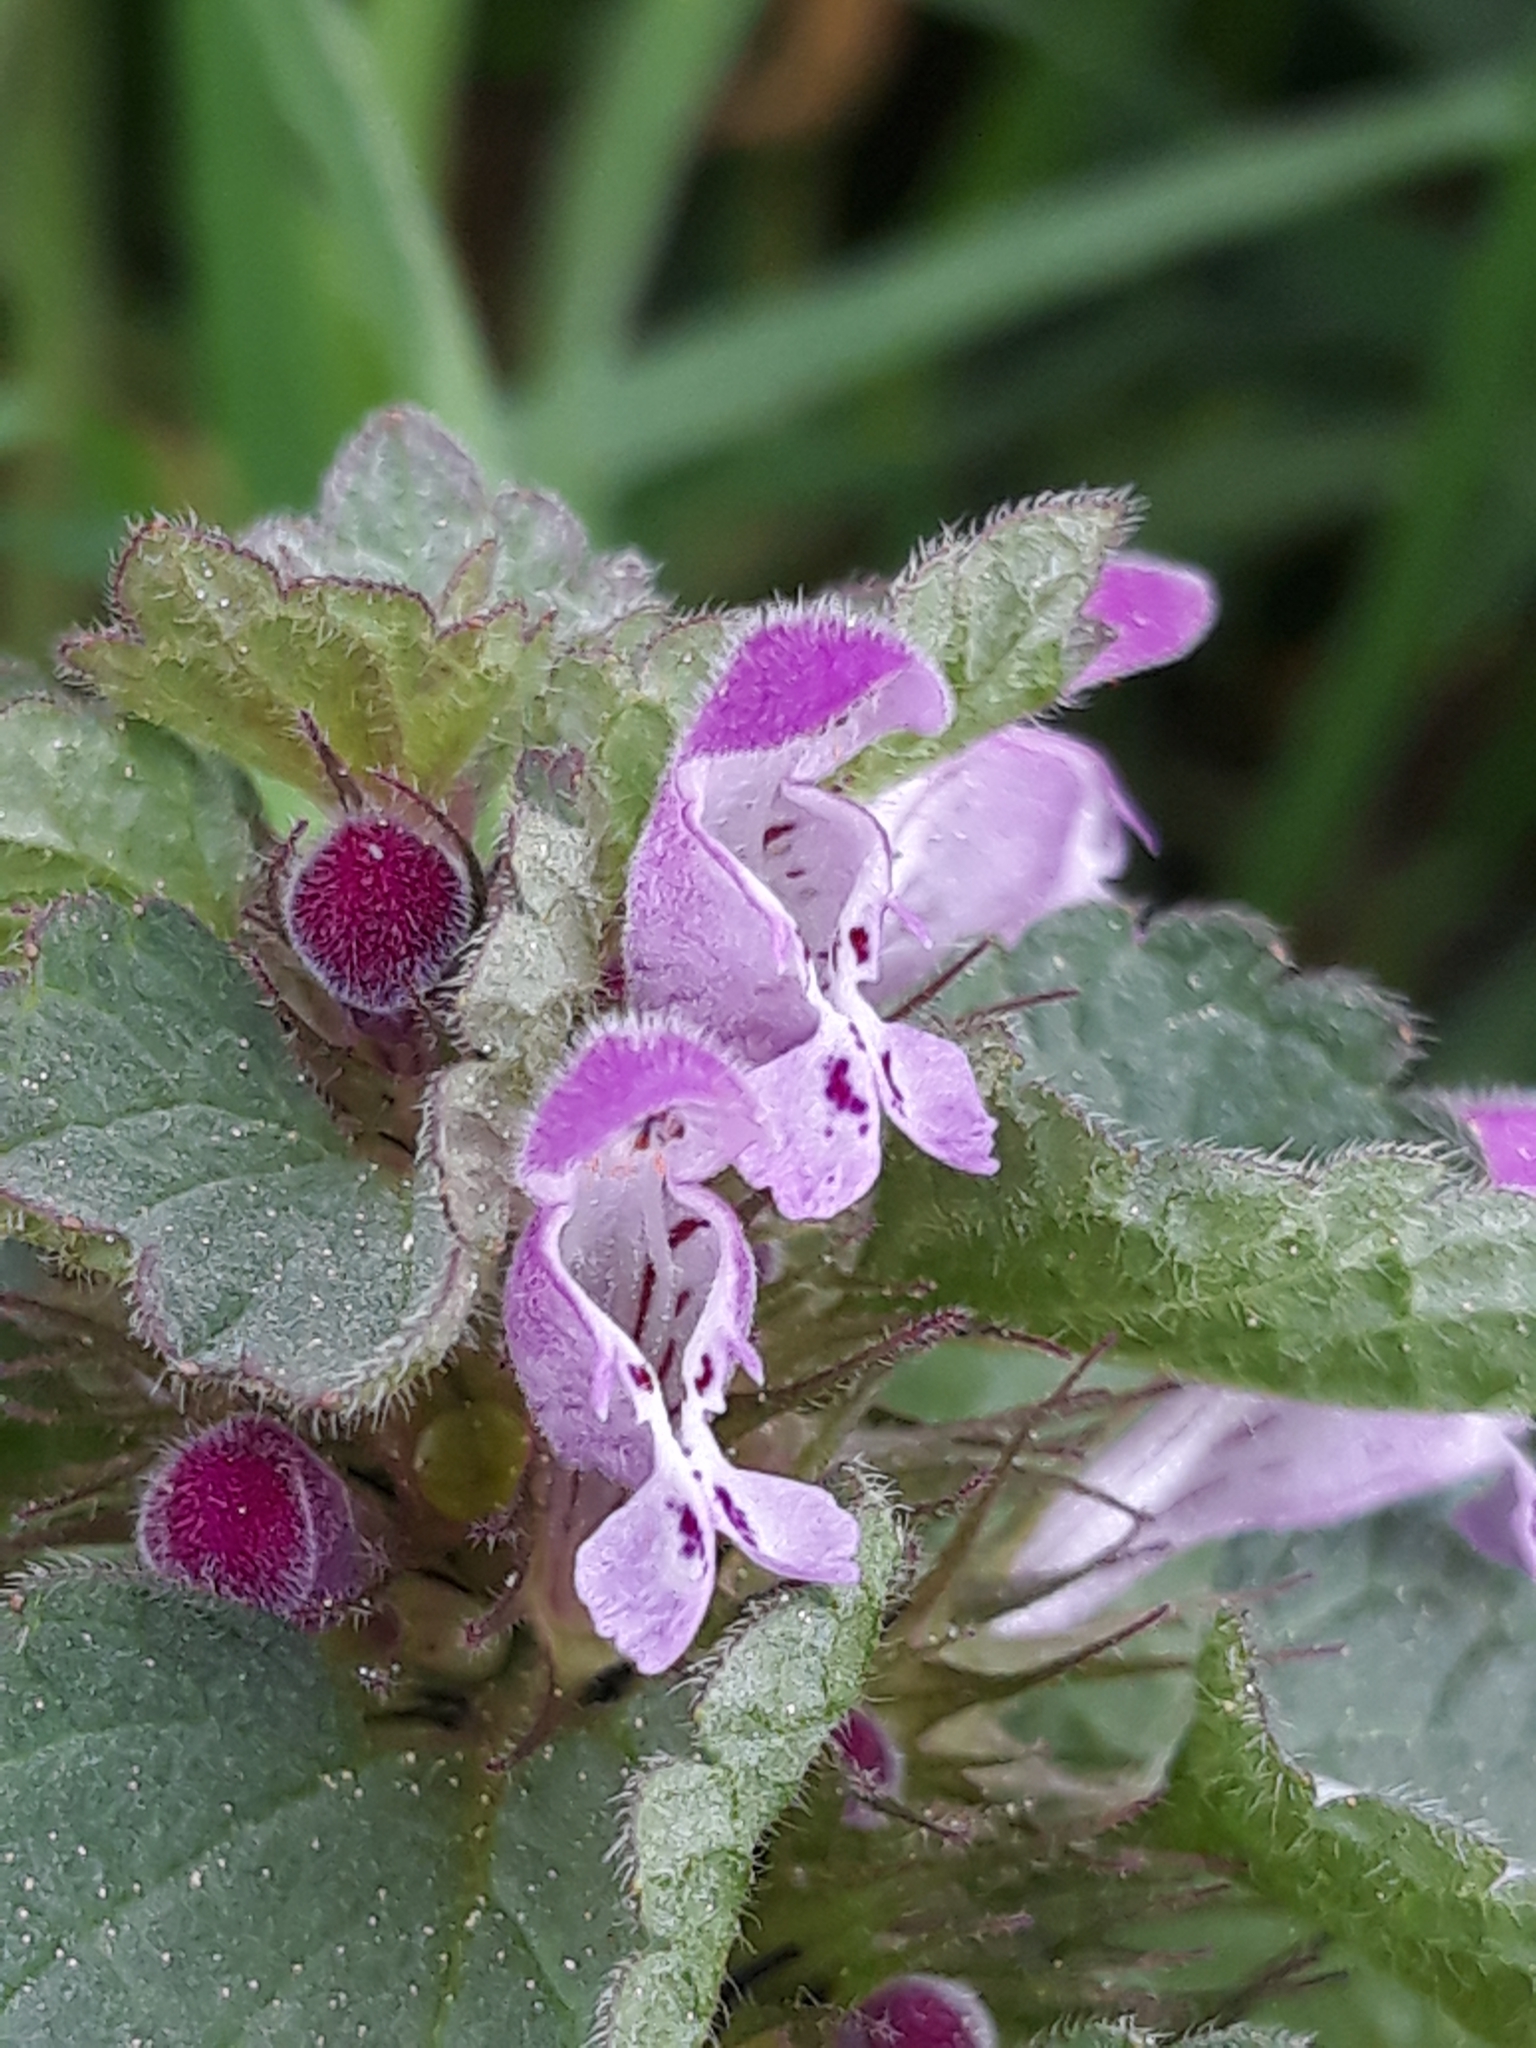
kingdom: Plantae
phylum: Tracheophyta
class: Magnoliopsida
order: Lamiales
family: Lamiaceae
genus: Lamium
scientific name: Lamium purpureum
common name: Red dead-nettle
